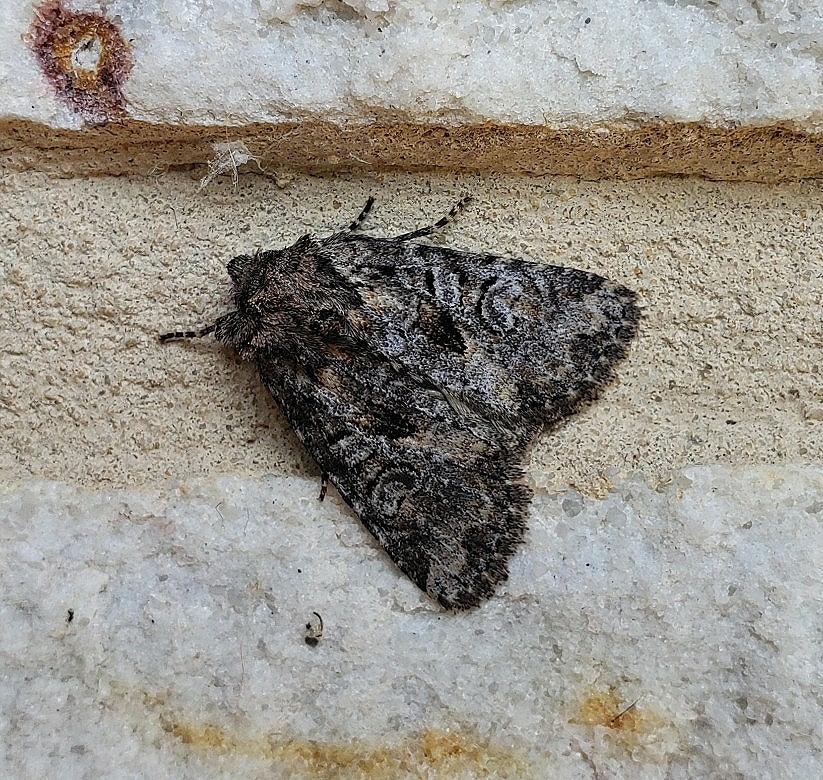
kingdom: Animalia
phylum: Arthropoda
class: Insecta
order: Lepidoptera
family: Noctuidae
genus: Raphia
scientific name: Raphia frater
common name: Brother
